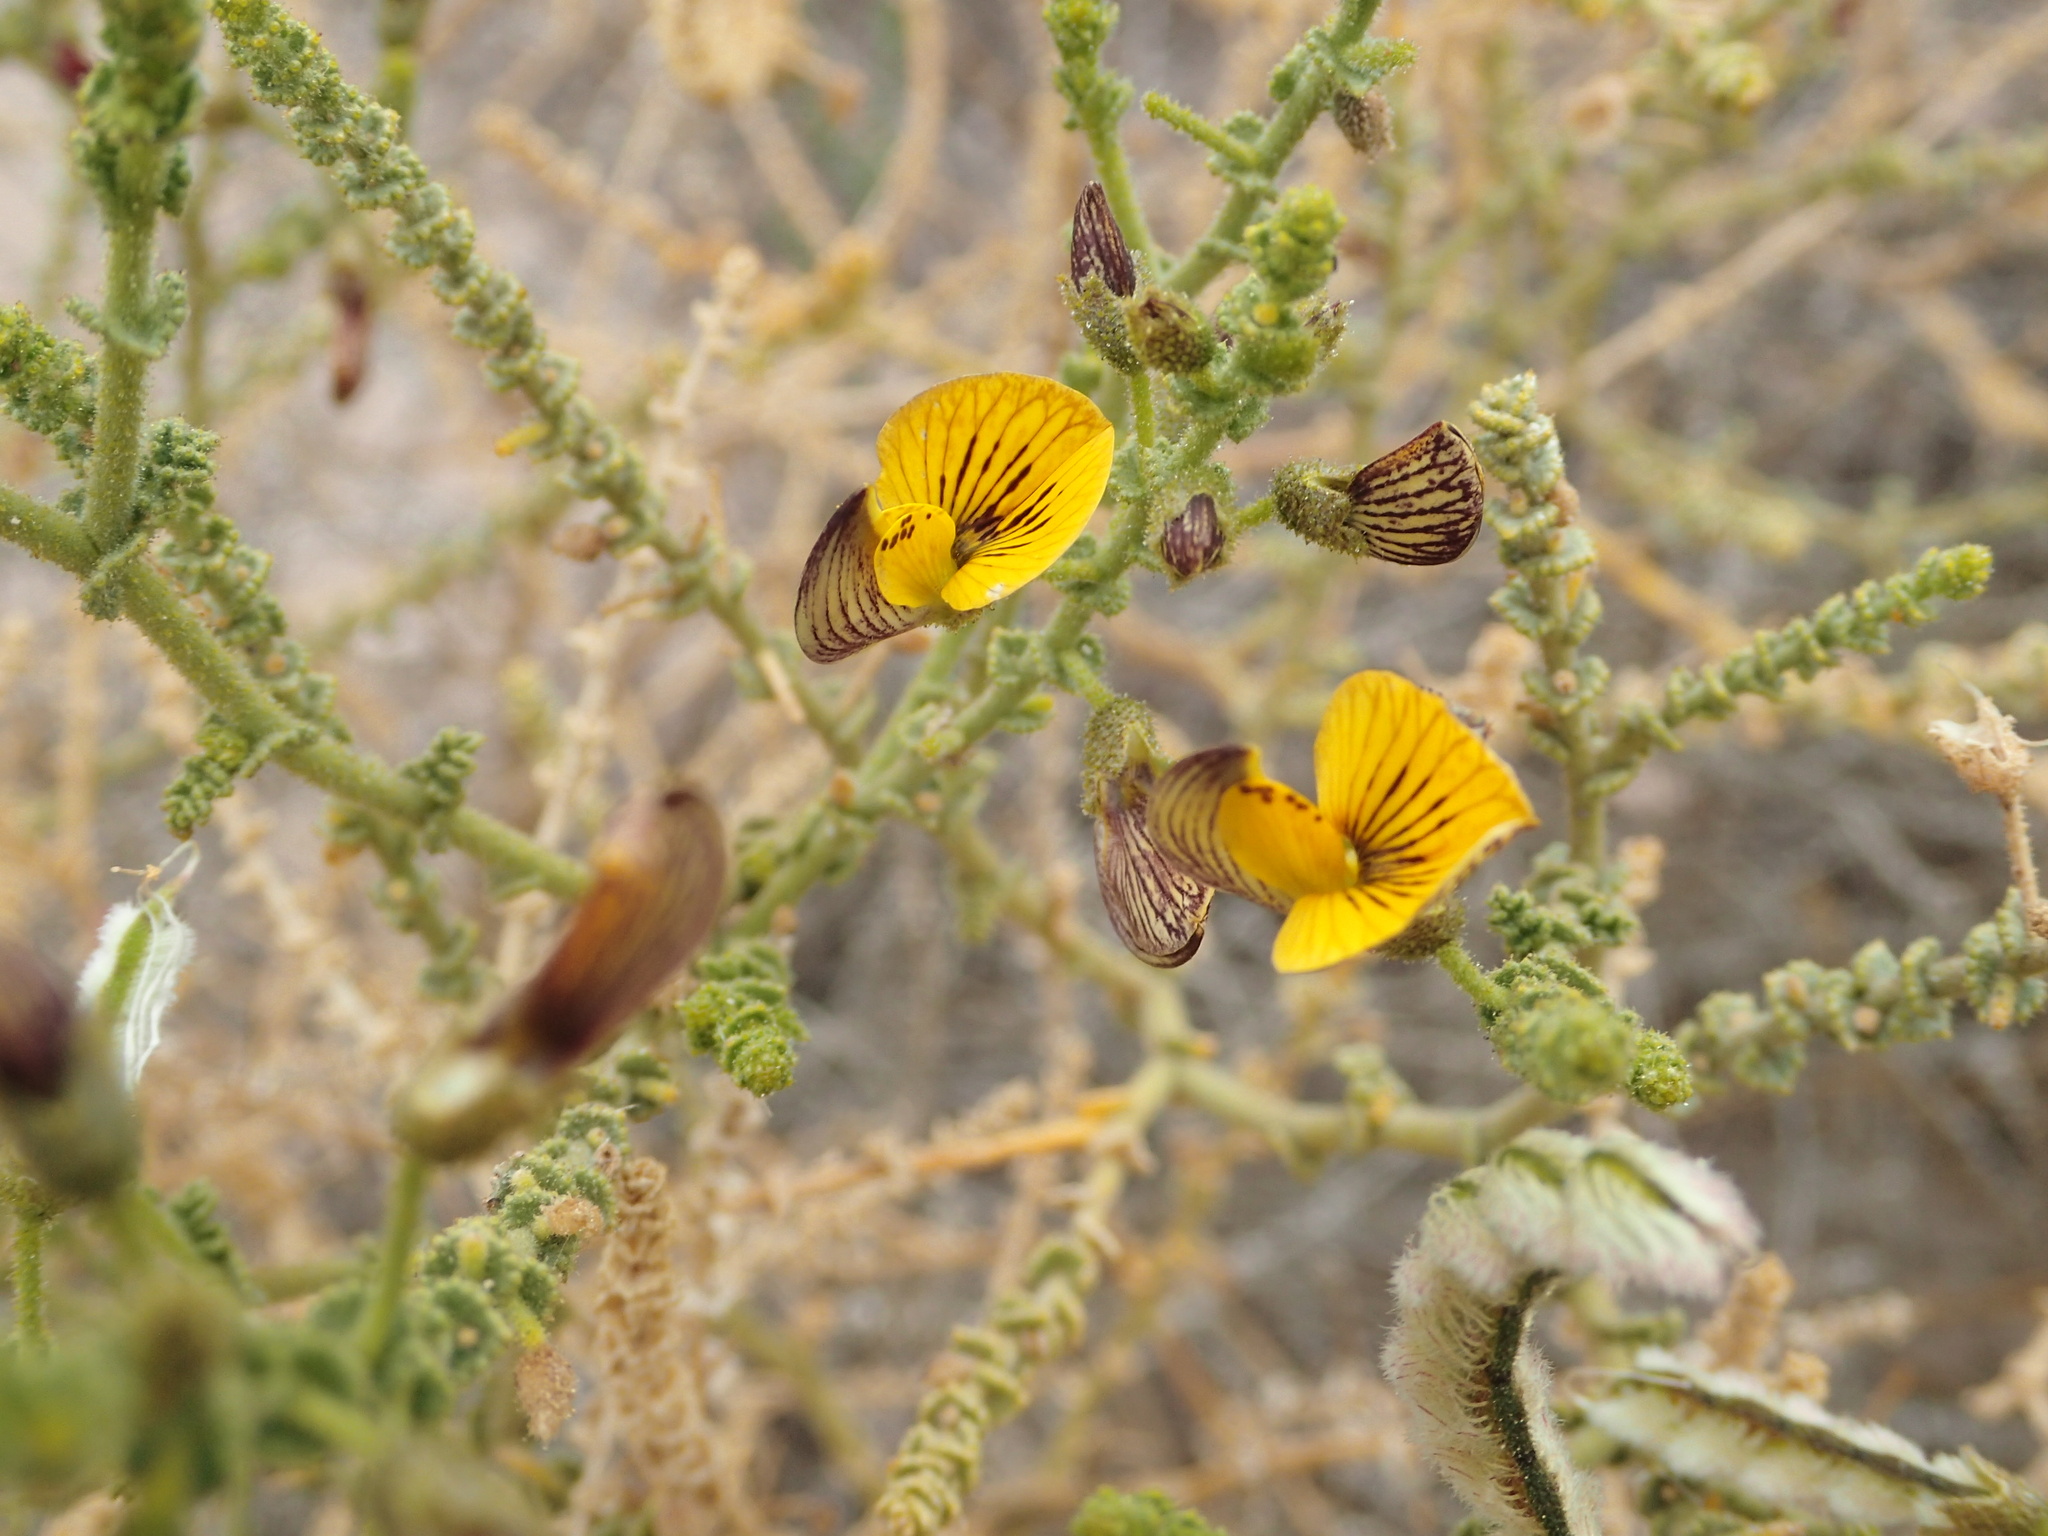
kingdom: Plantae
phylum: Tracheophyta
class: Magnoliopsida
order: Fabales
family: Fabaceae
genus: Adesmia
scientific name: Adesmia atacamensis
